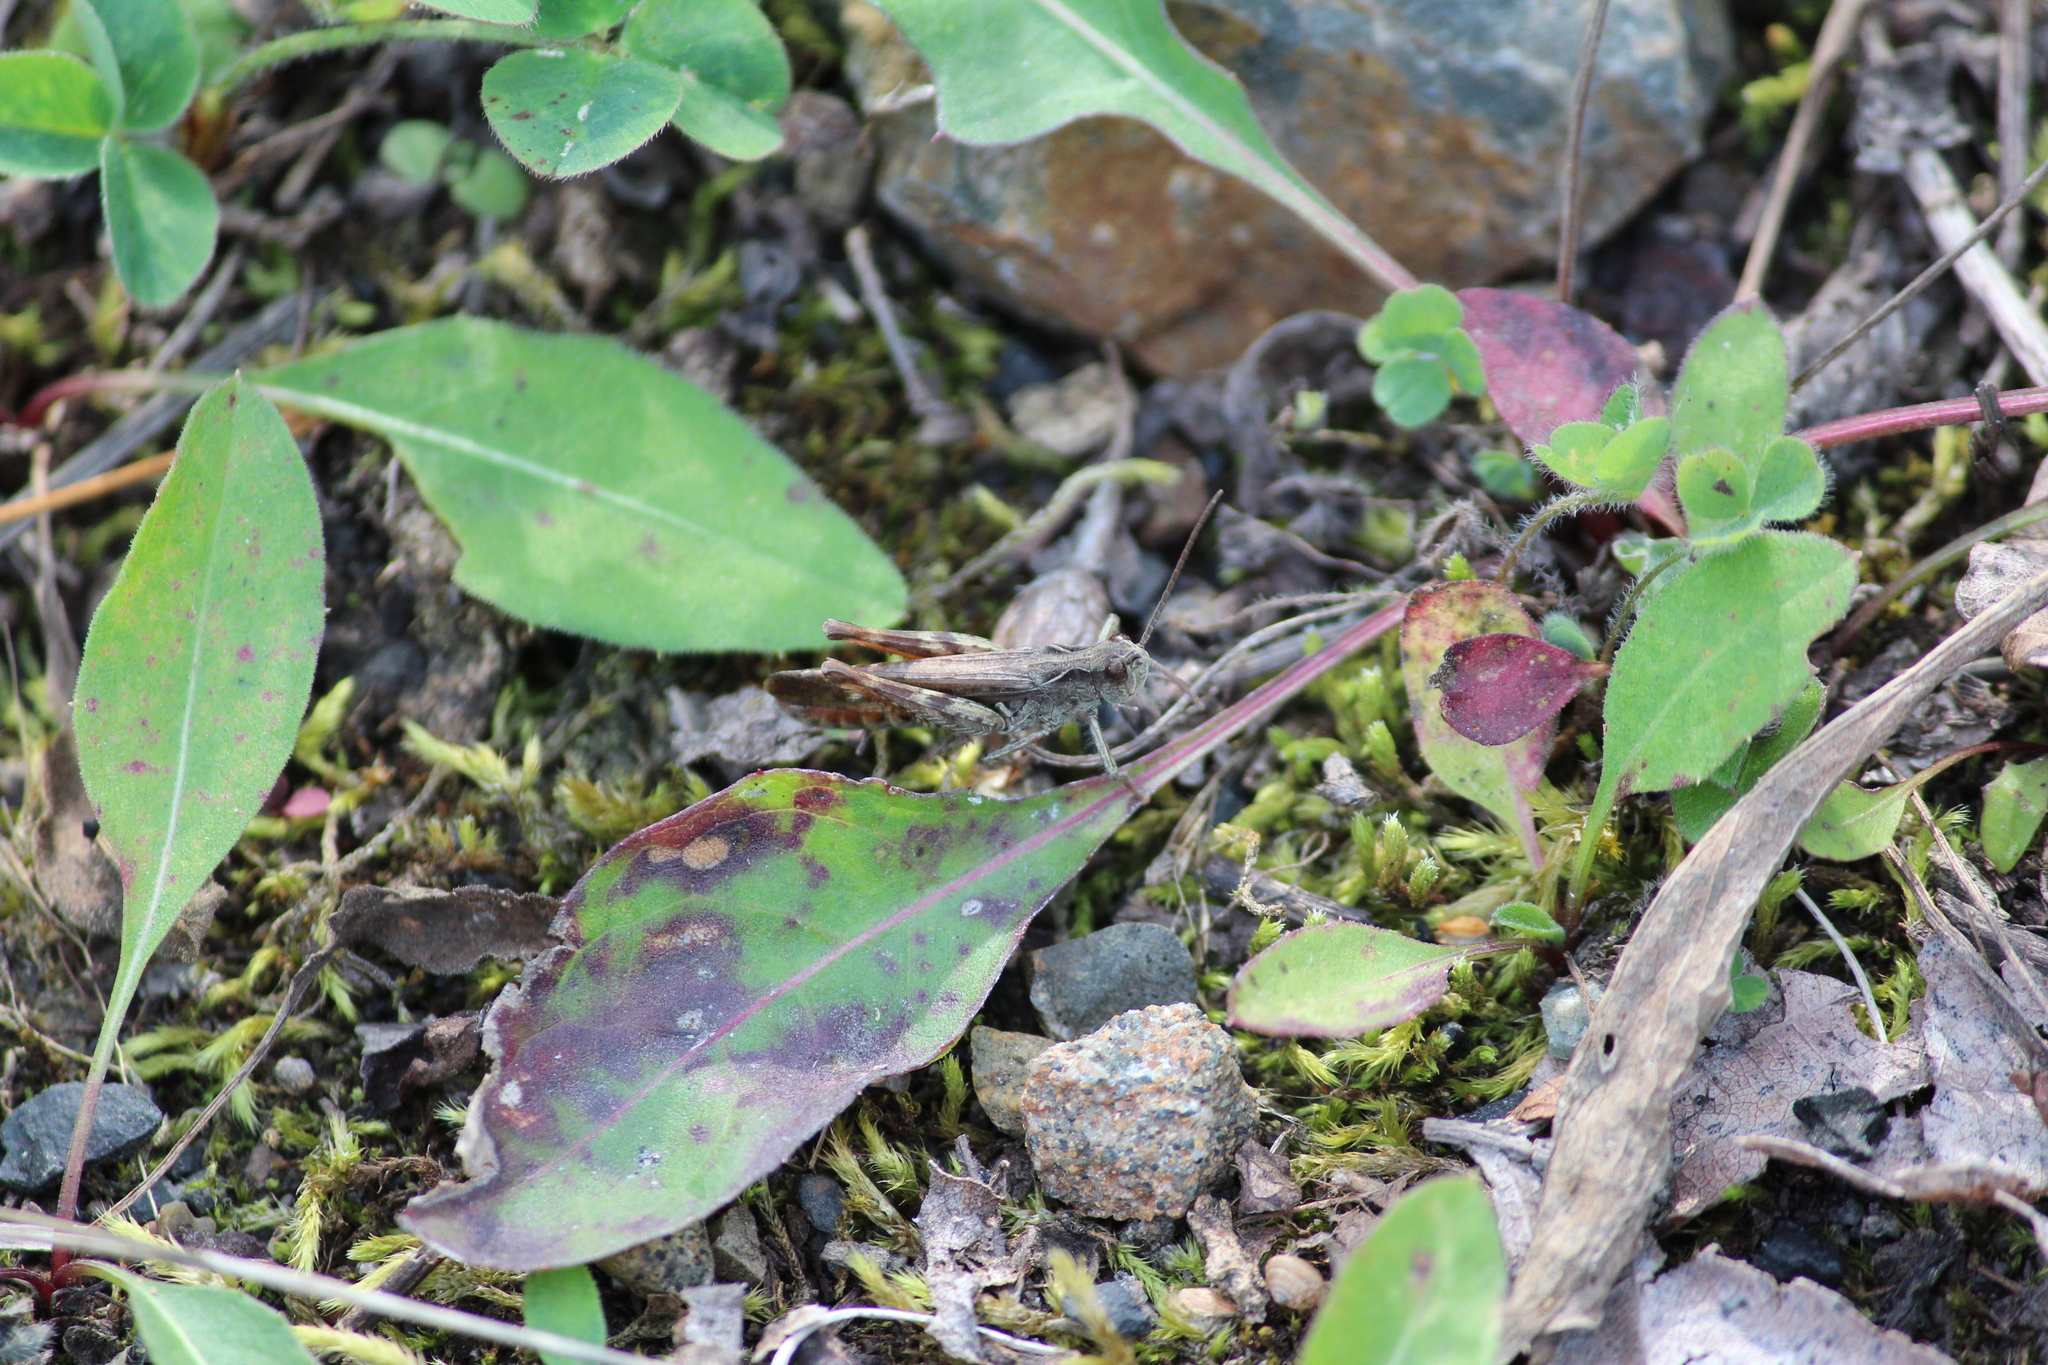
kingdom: Animalia
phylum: Arthropoda
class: Insecta
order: Orthoptera
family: Acrididae
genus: Chorthippus
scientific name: Chorthippus biguttulus
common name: Bow-winged grasshopper
